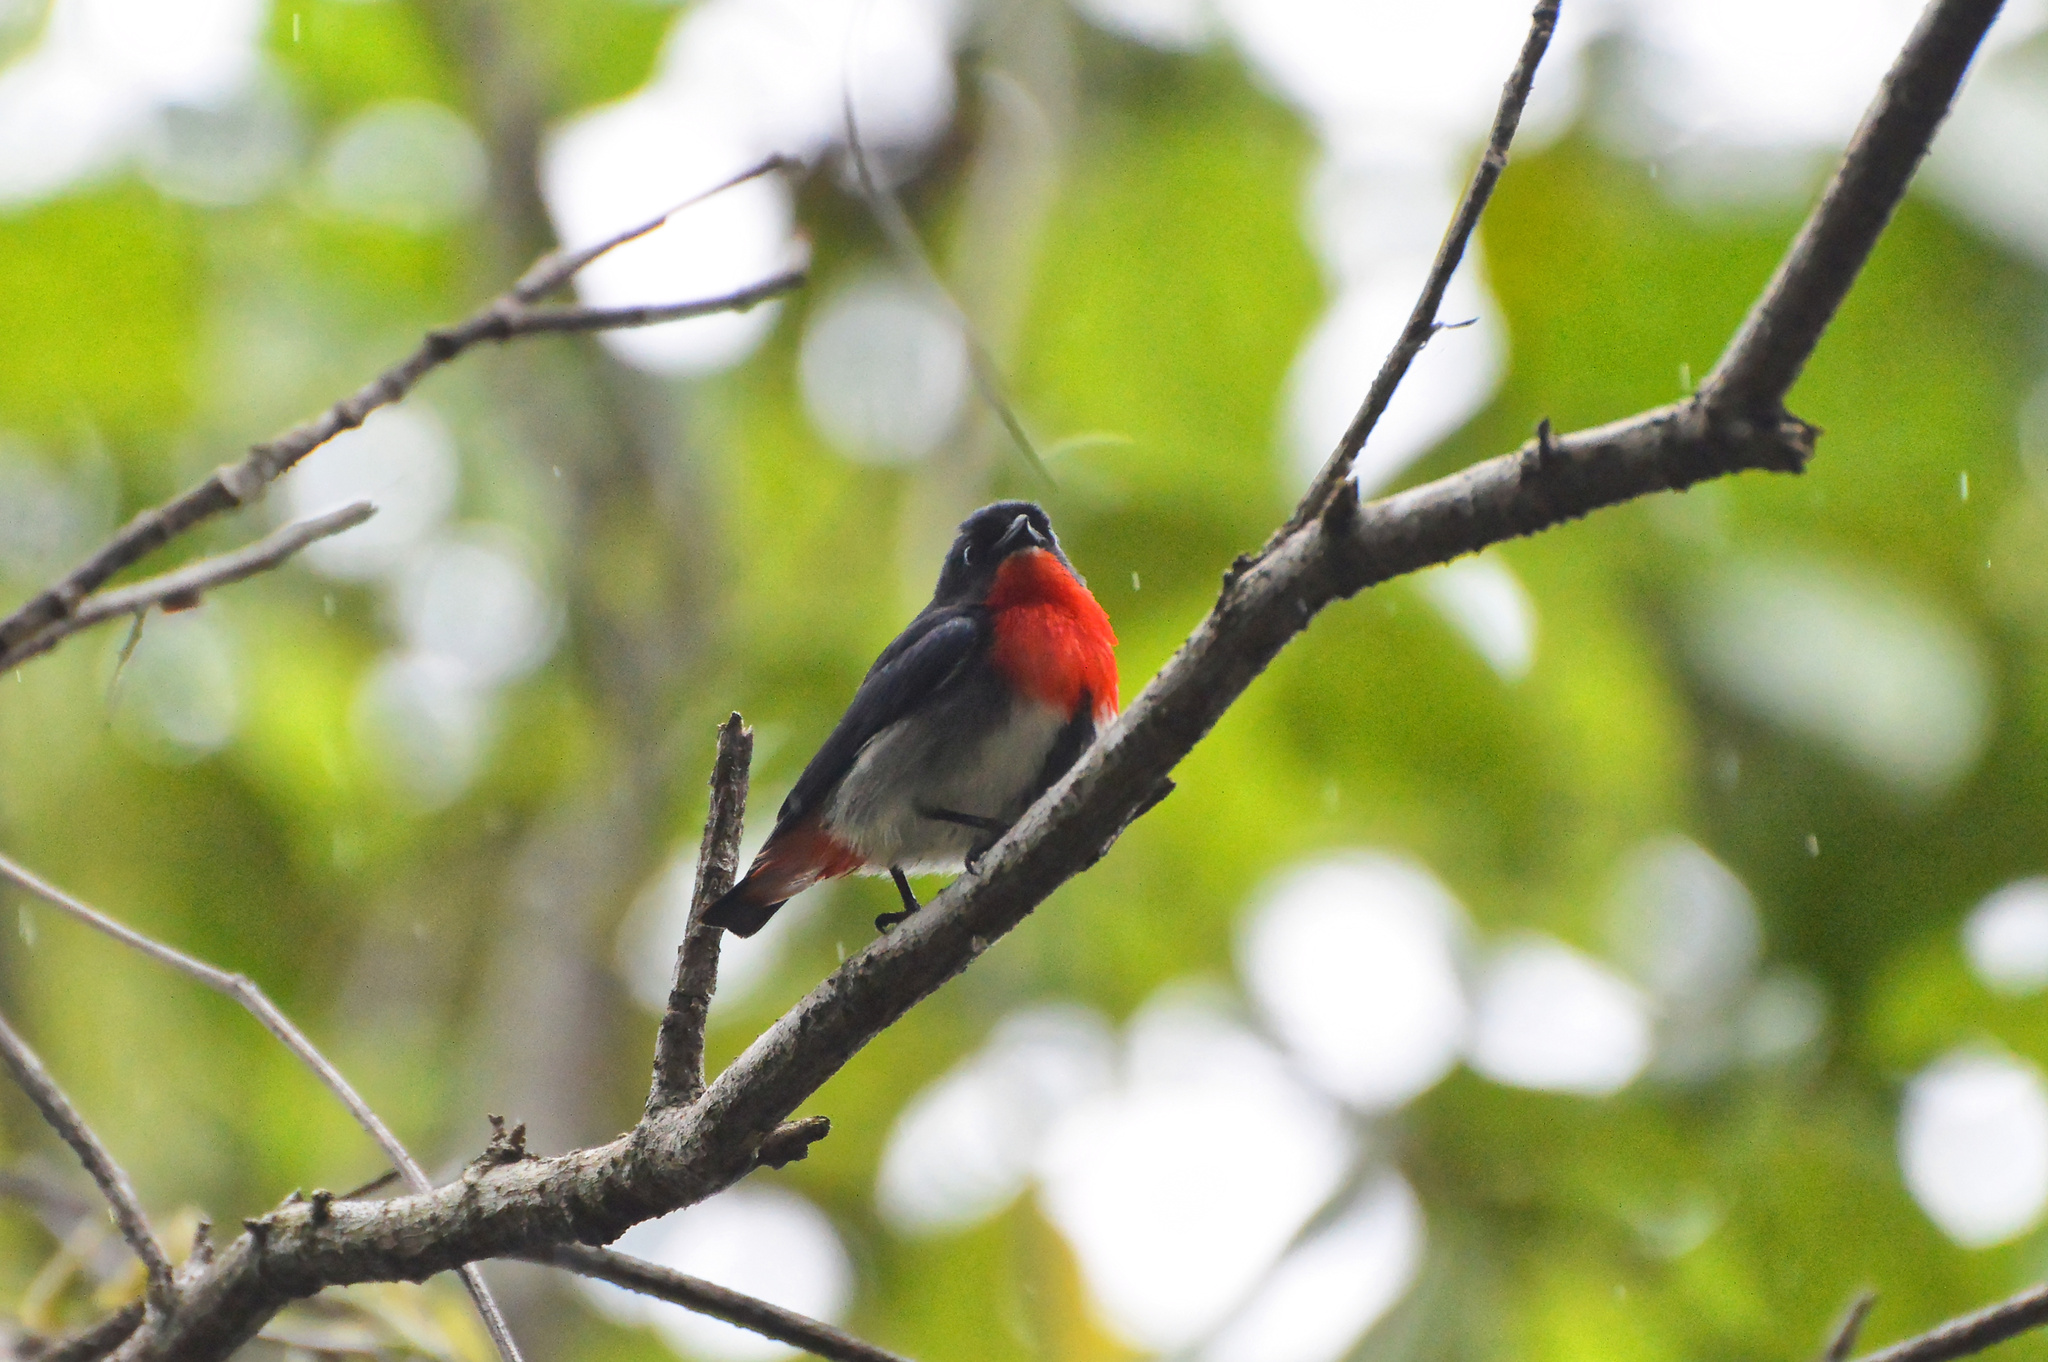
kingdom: Animalia
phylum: Chordata
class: Aves
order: Passeriformes
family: Dicaeidae
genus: Dicaeum
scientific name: Dicaeum hirundinaceum
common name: Mistletoebird
